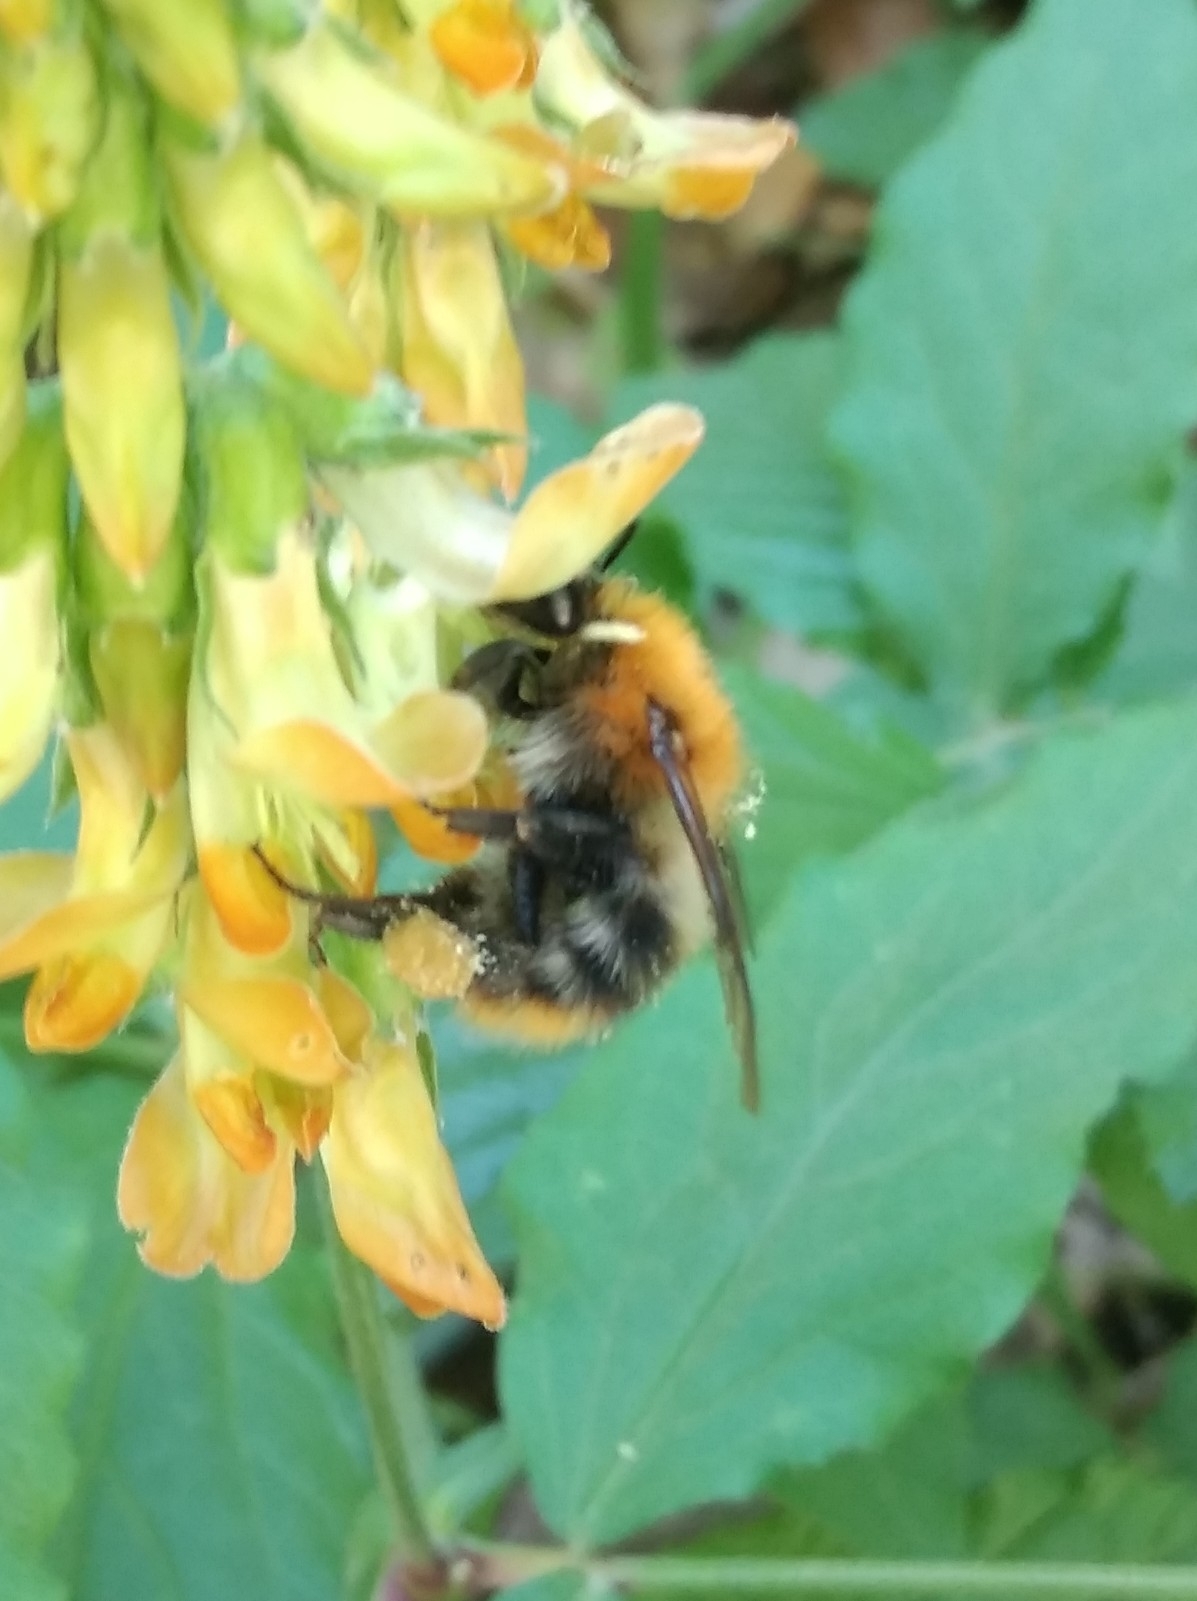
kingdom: Animalia
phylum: Arthropoda
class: Insecta
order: Hymenoptera
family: Apidae
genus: Bombus
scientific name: Bombus pascuorum
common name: Common carder bee
